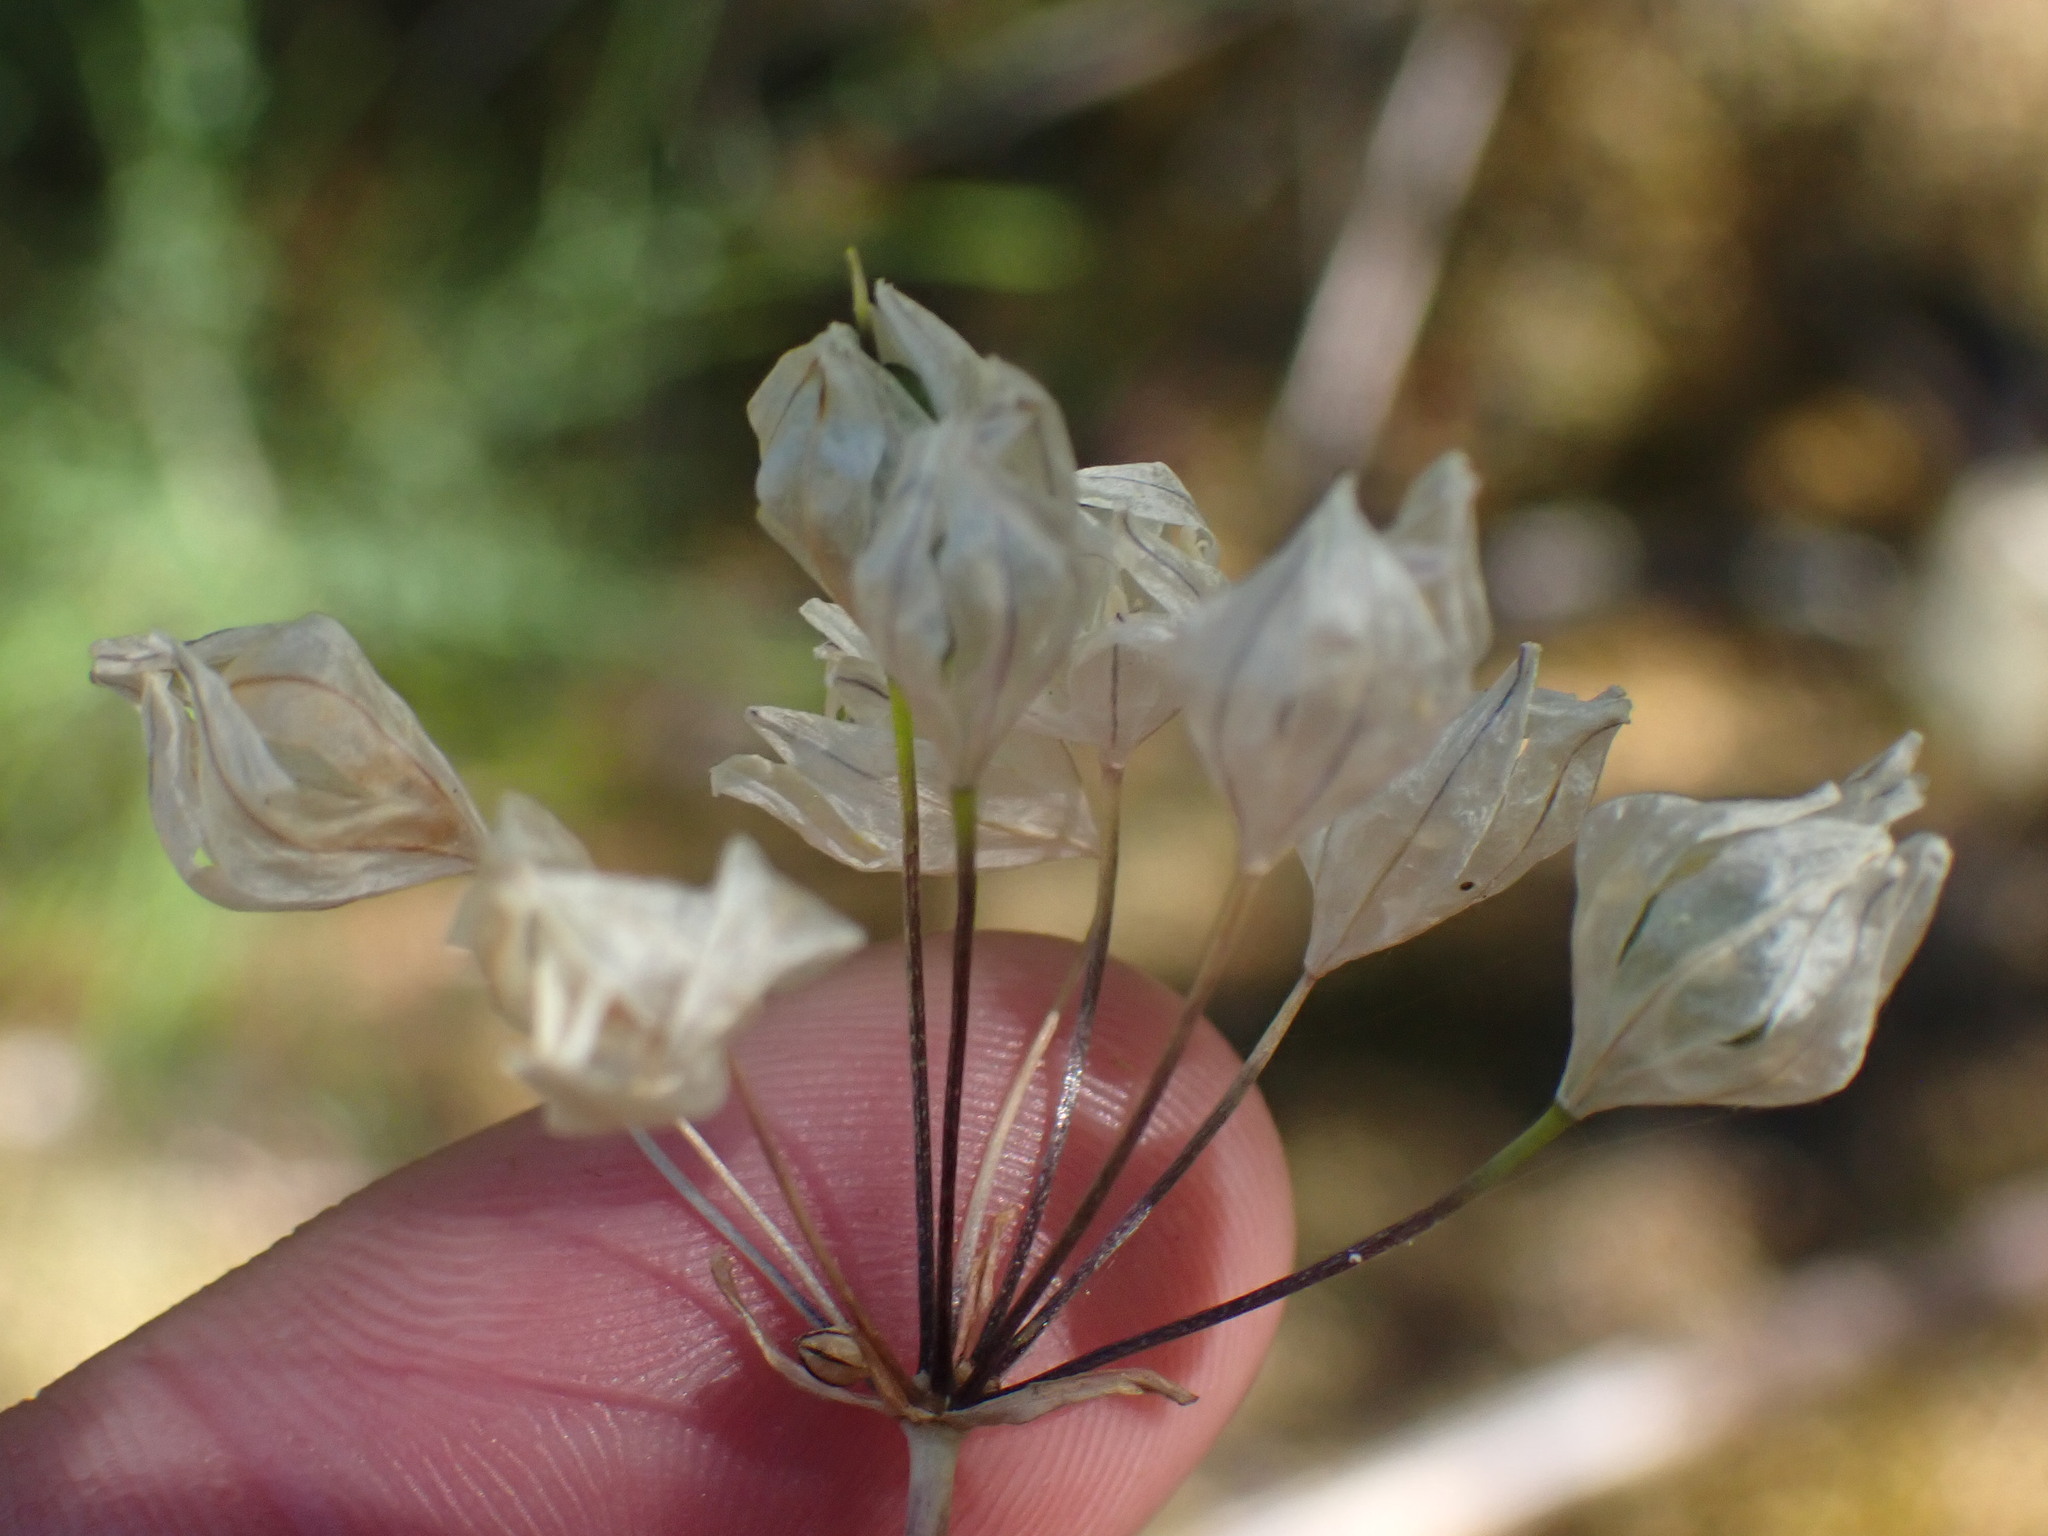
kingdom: Plantae
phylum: Tracheophyta
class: Liliopsida
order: Asparagales
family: Asparagaceae
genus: Triteleia
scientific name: Triteleia hyacinthina
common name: White brodiaea
